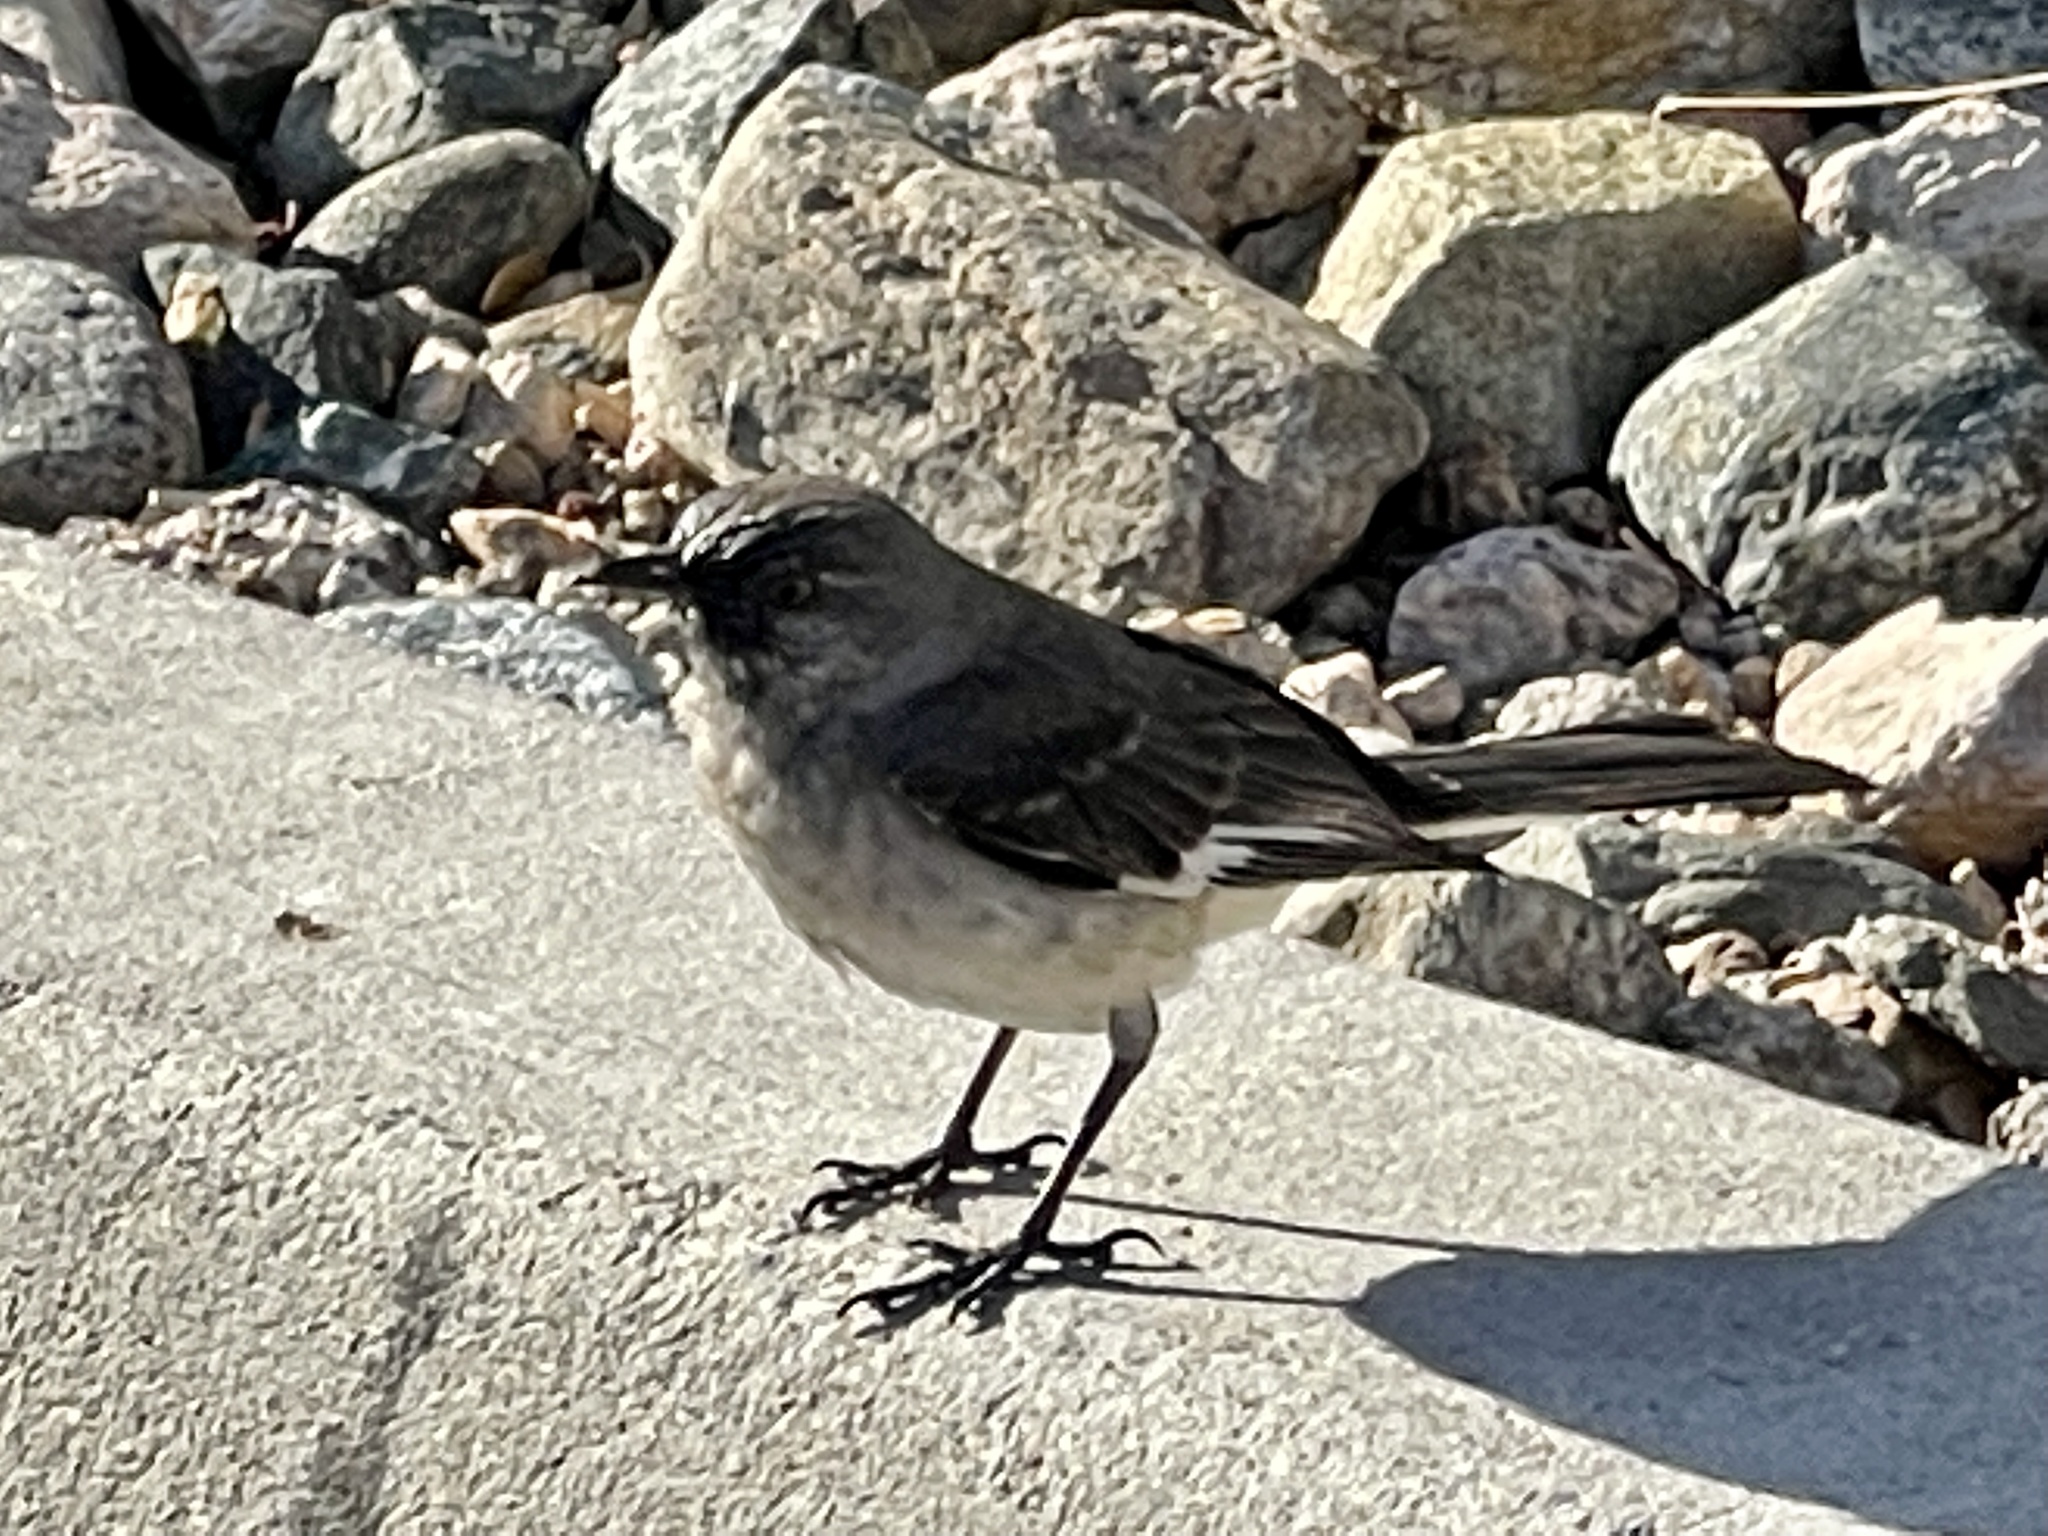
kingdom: Animalia
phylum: Chordata
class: Aves
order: Passeriformes
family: Mimidae
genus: Mimus
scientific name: Mimus polyglottos
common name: Northern mockingbird
